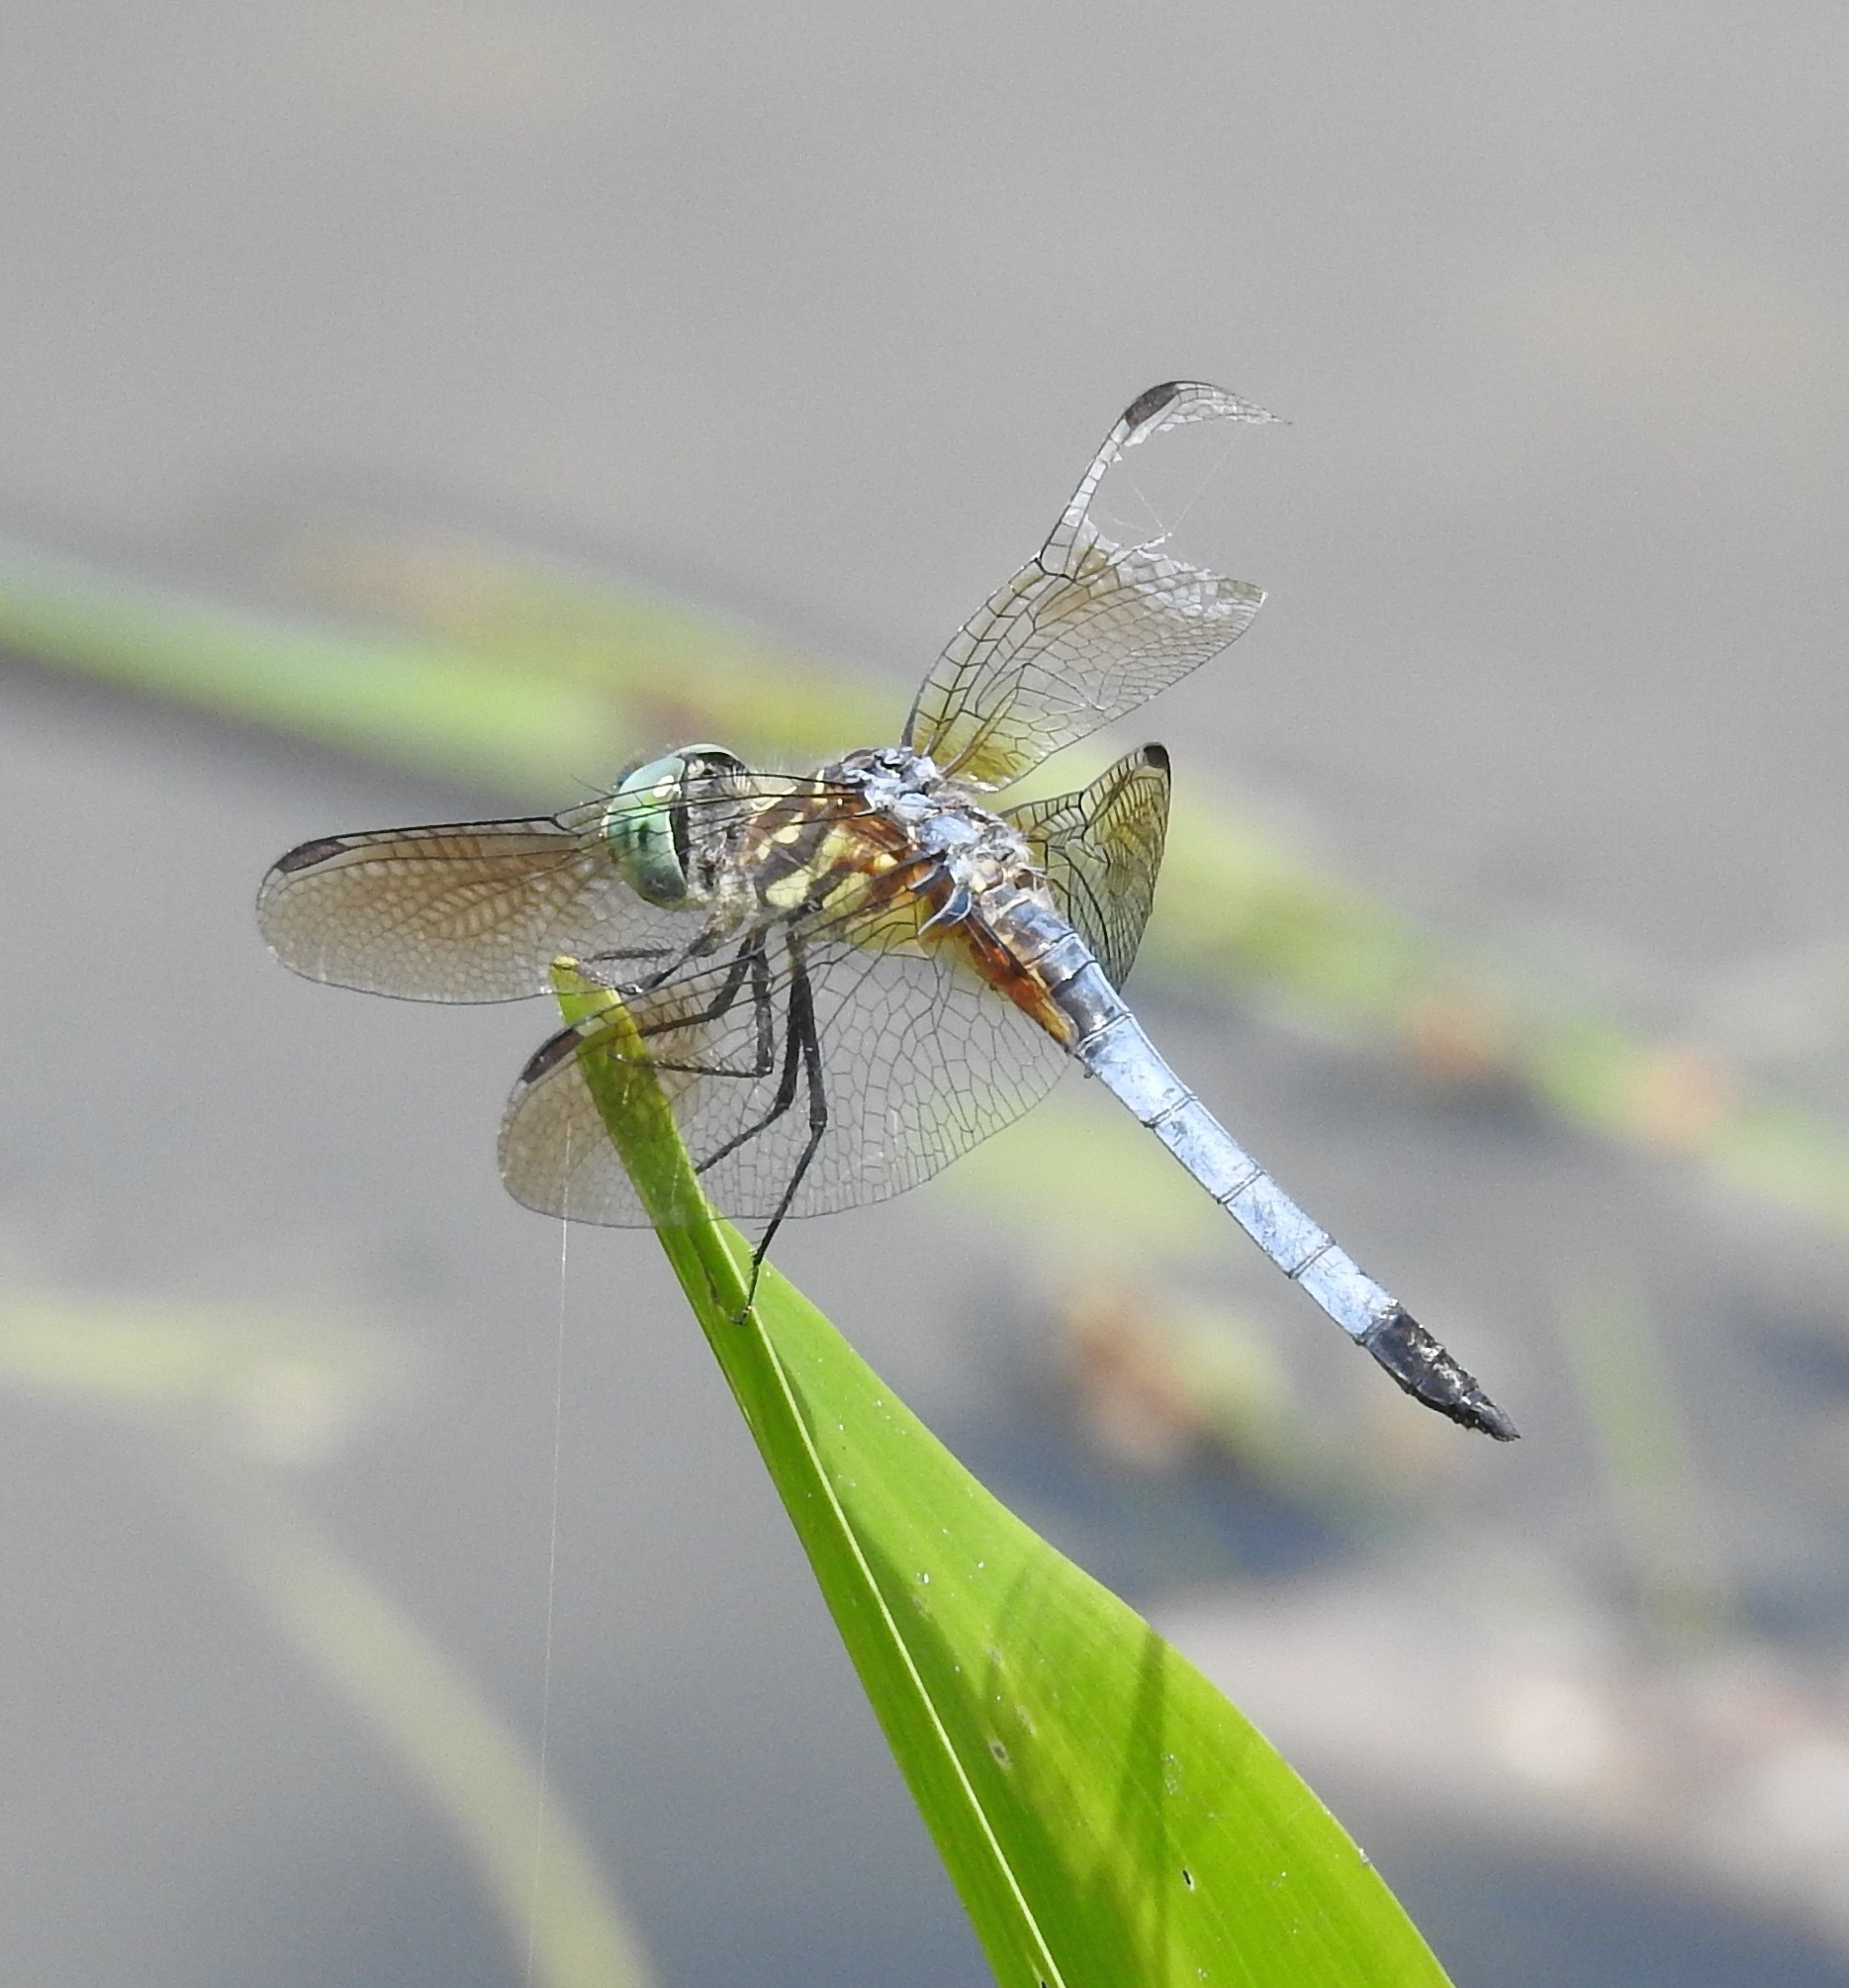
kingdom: Animalia
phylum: Arthropoda
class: Insecta
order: Odonata
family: Libellulidae
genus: Pachydiplax
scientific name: Pachydiplax longipennis
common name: Blue dasher
